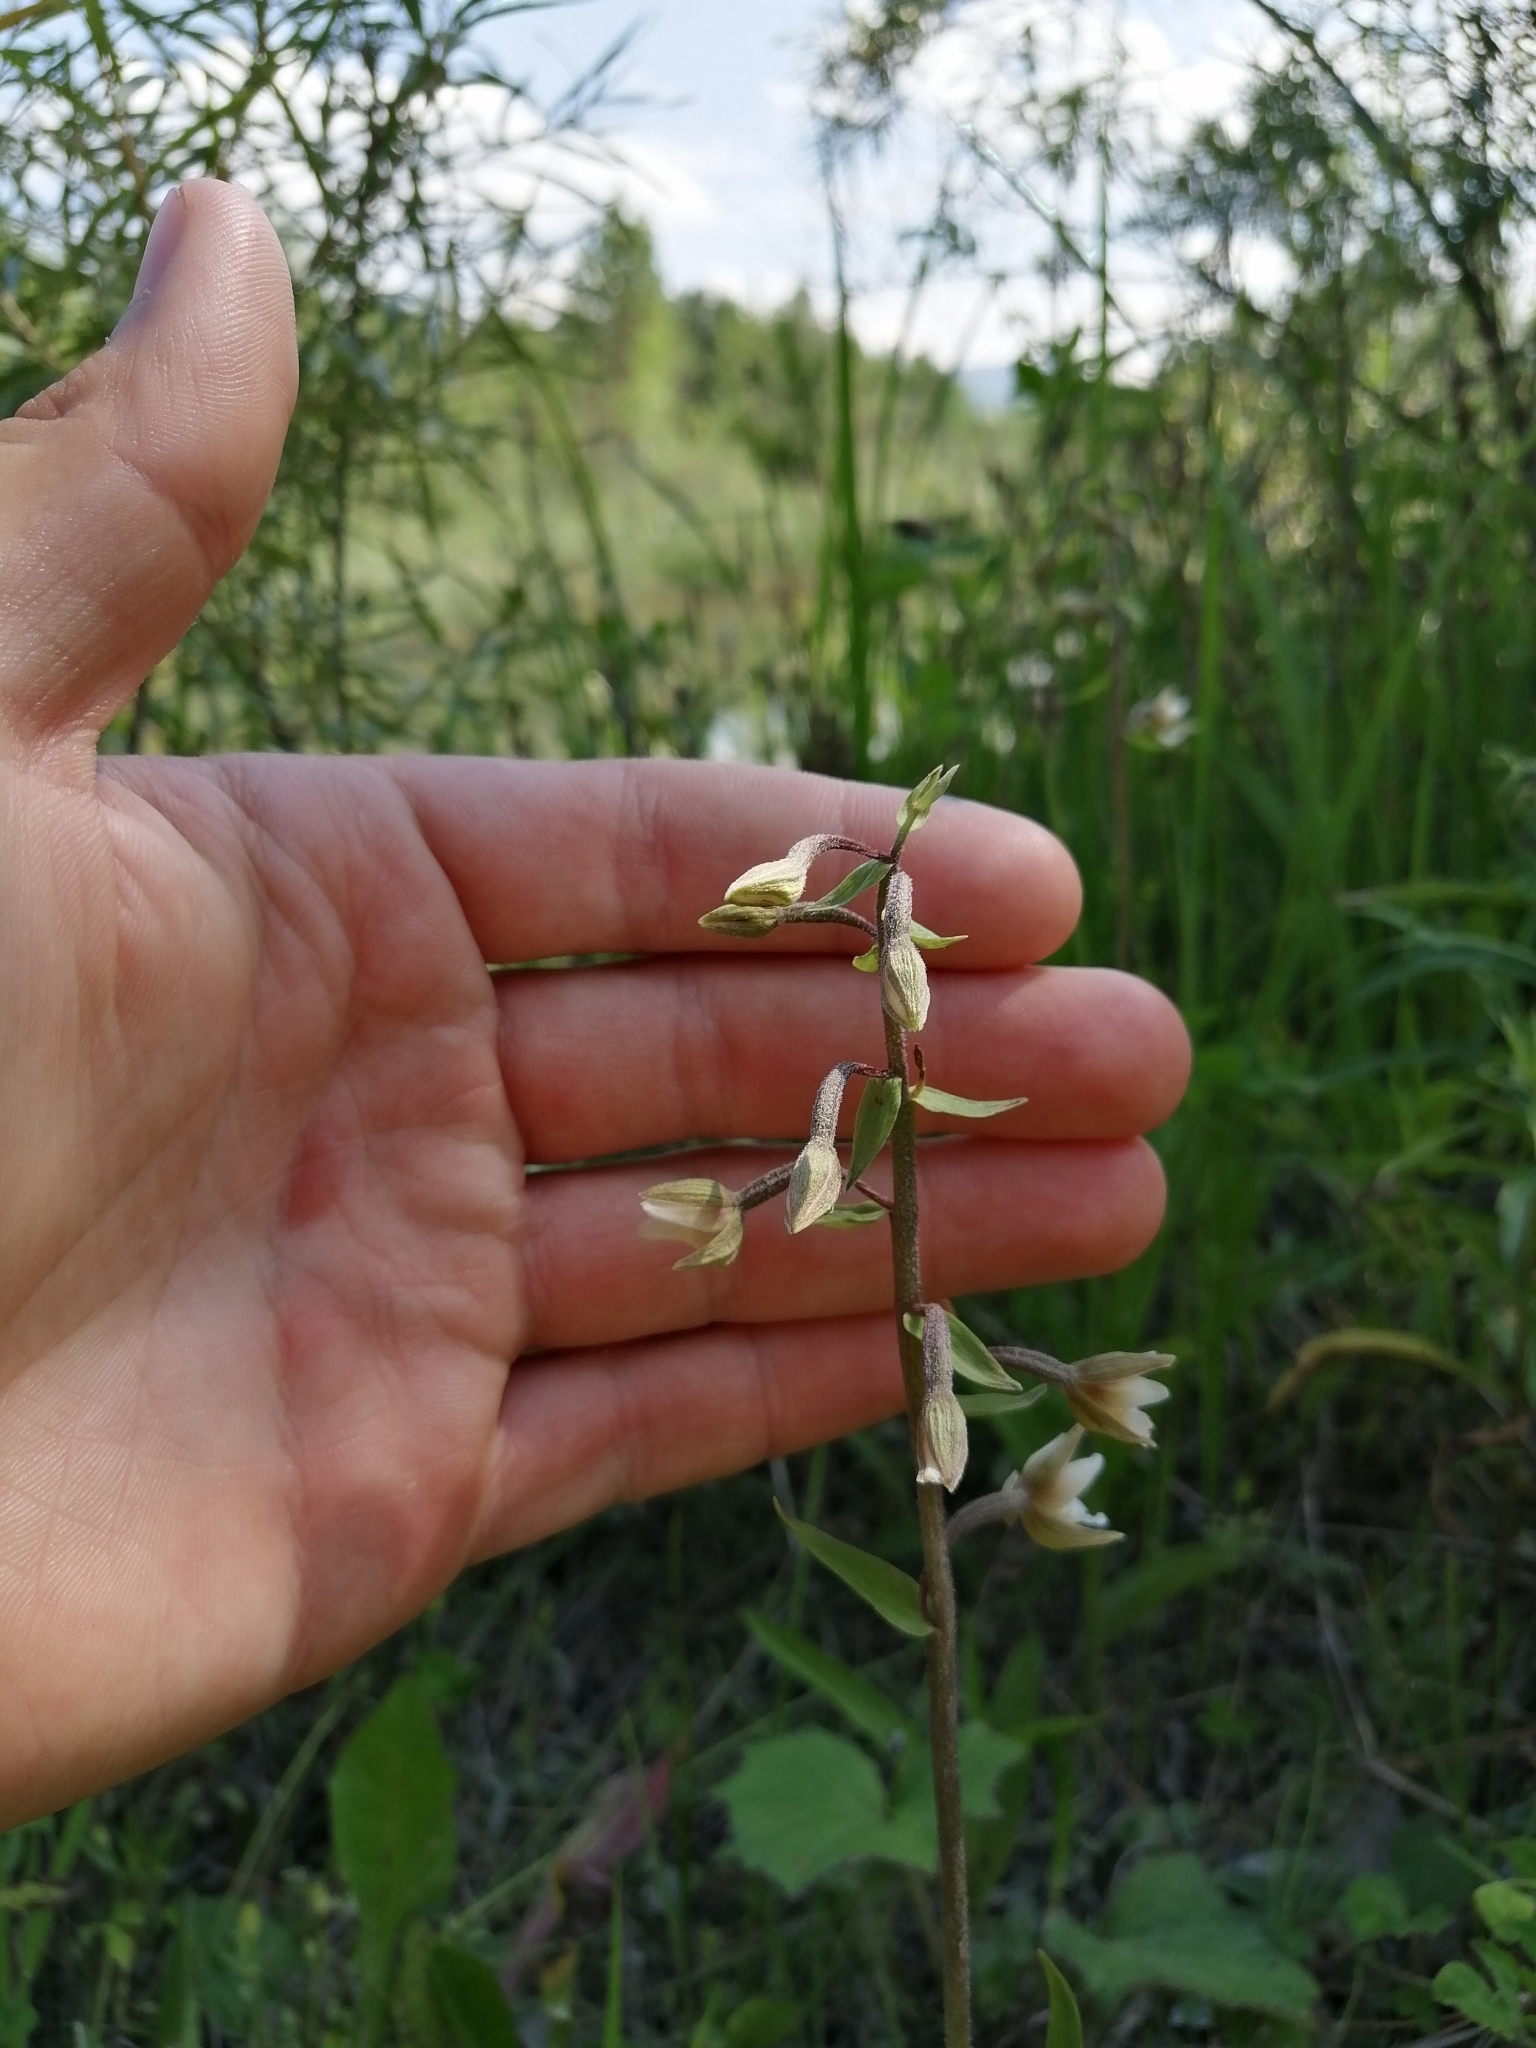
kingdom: Plantae
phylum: Tracheophyta
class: Liliopsida
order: Asparagales
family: Orchidaceae
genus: Epipactis
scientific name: Epipactis palustris
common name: Marsh helleborine
